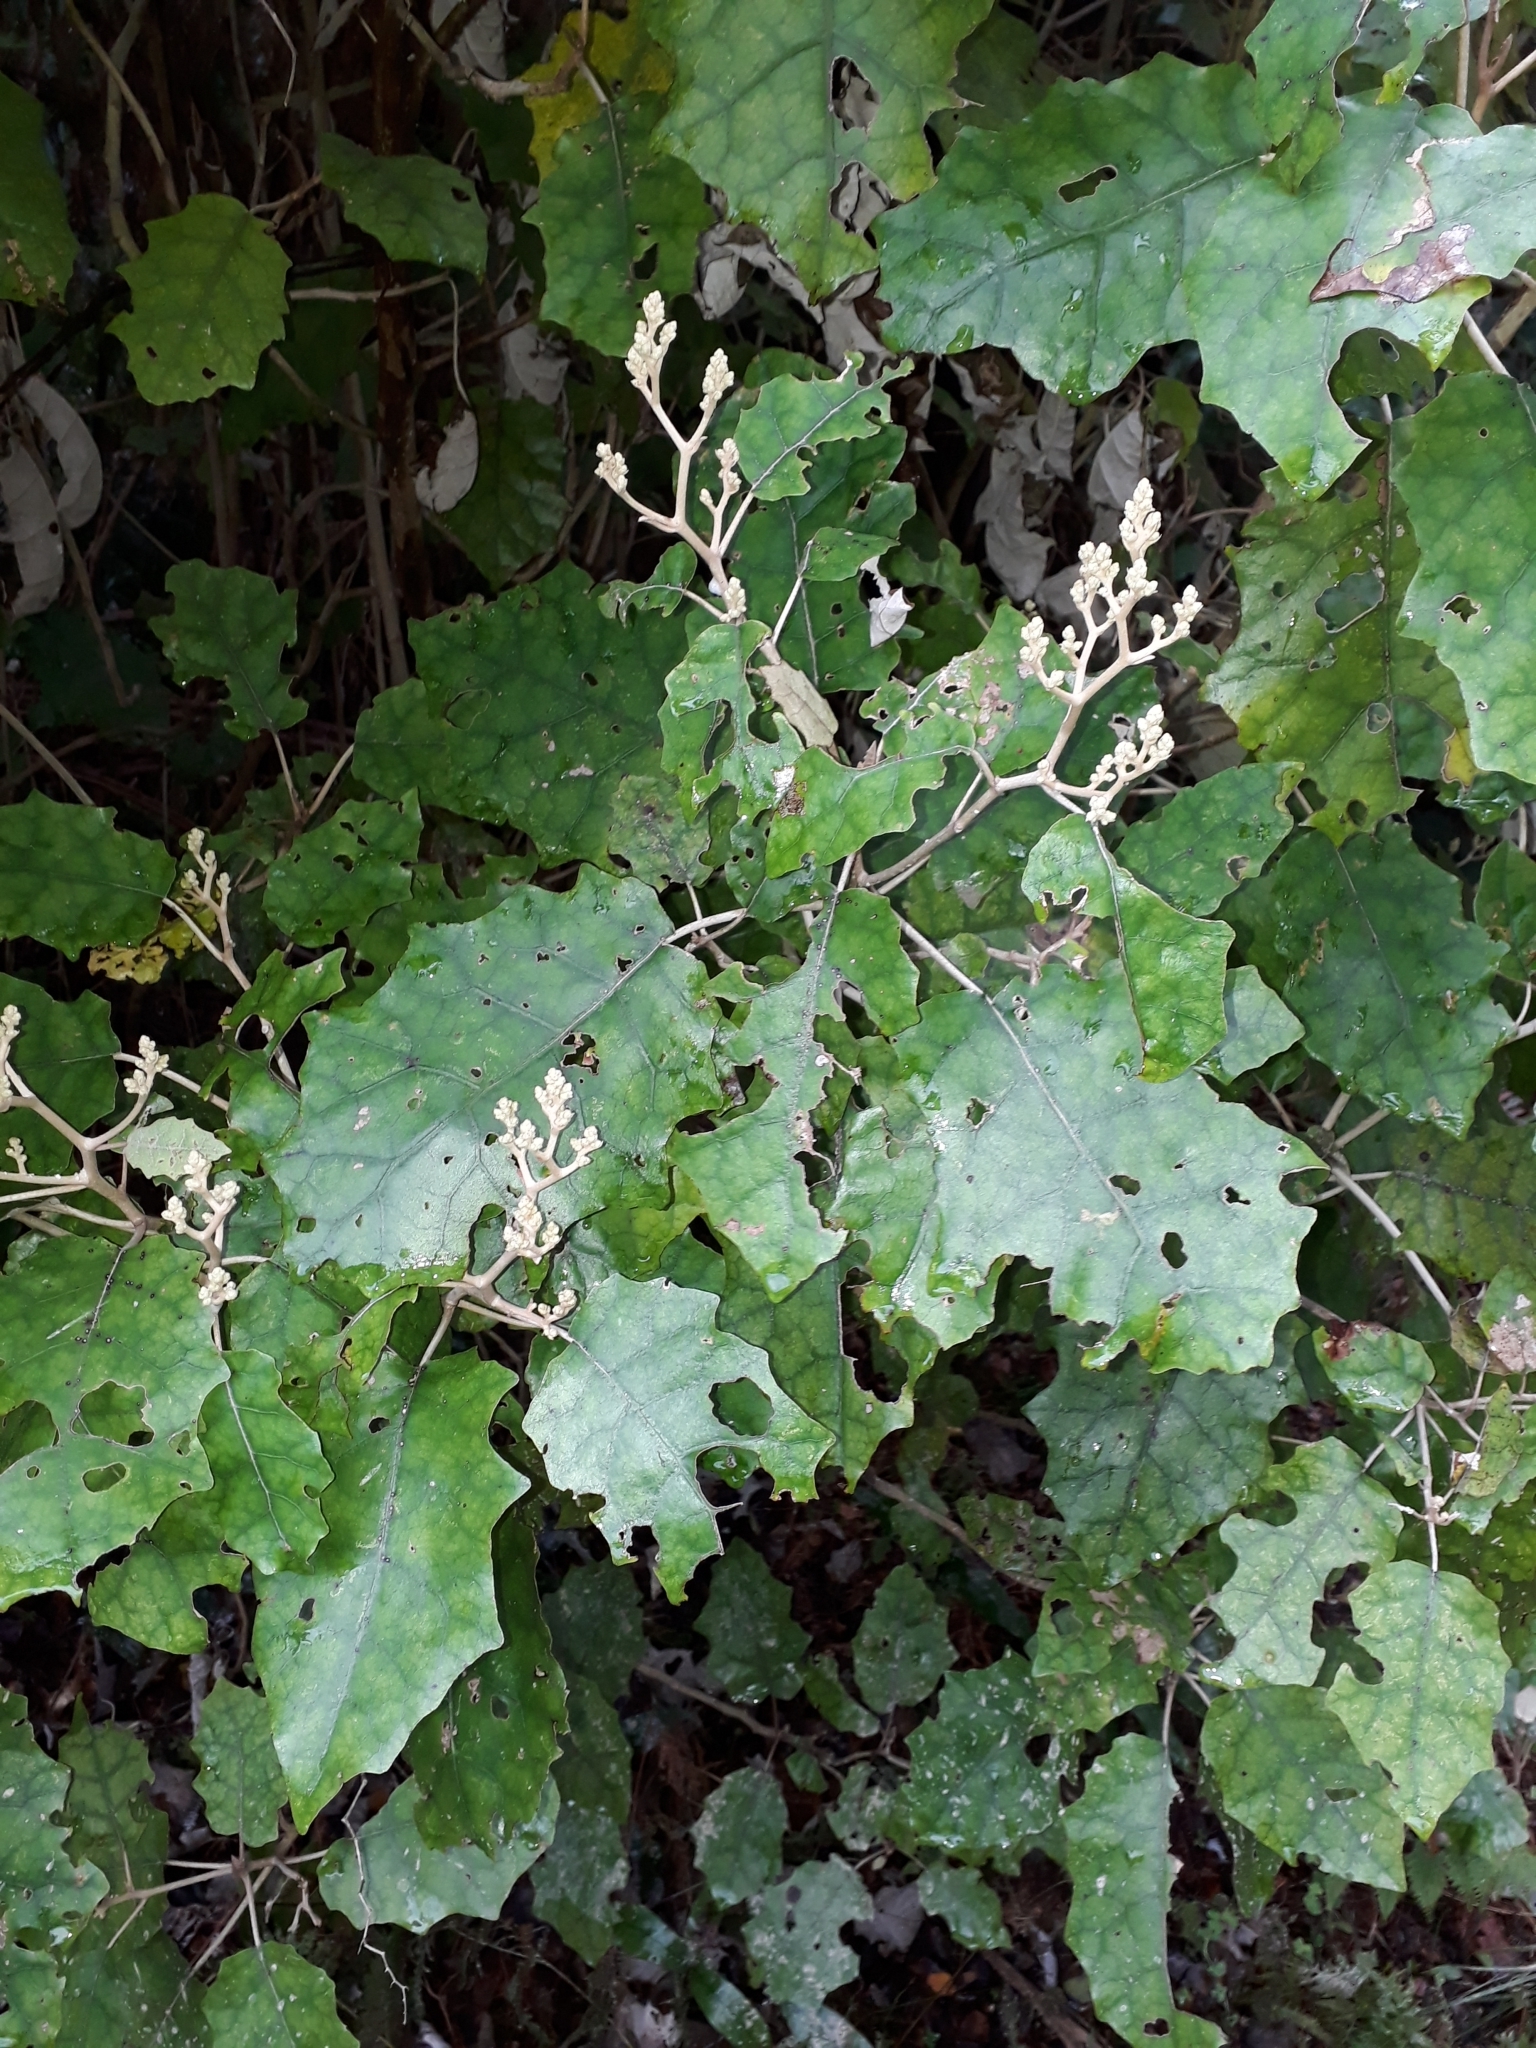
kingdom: Plantae
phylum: Tracheophyta
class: Magnoliopsida
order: Asterales
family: Asteraceae
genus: Brachyglottis
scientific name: Brachyglottis repanda
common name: Hedge ragwort
